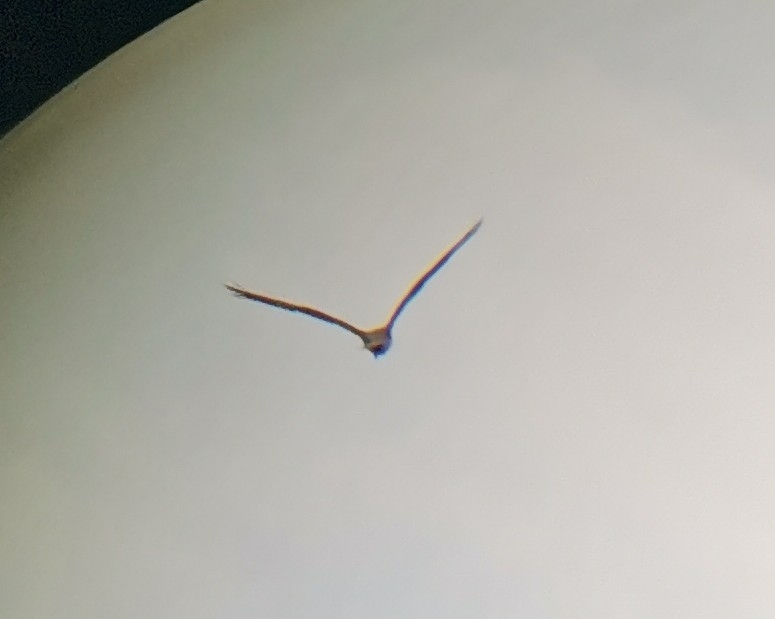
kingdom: Animalia
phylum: Chordata
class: Aves
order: Accipitriformes
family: Pandionidae
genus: Pandion
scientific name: Pandion haliaetus
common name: Osprey
